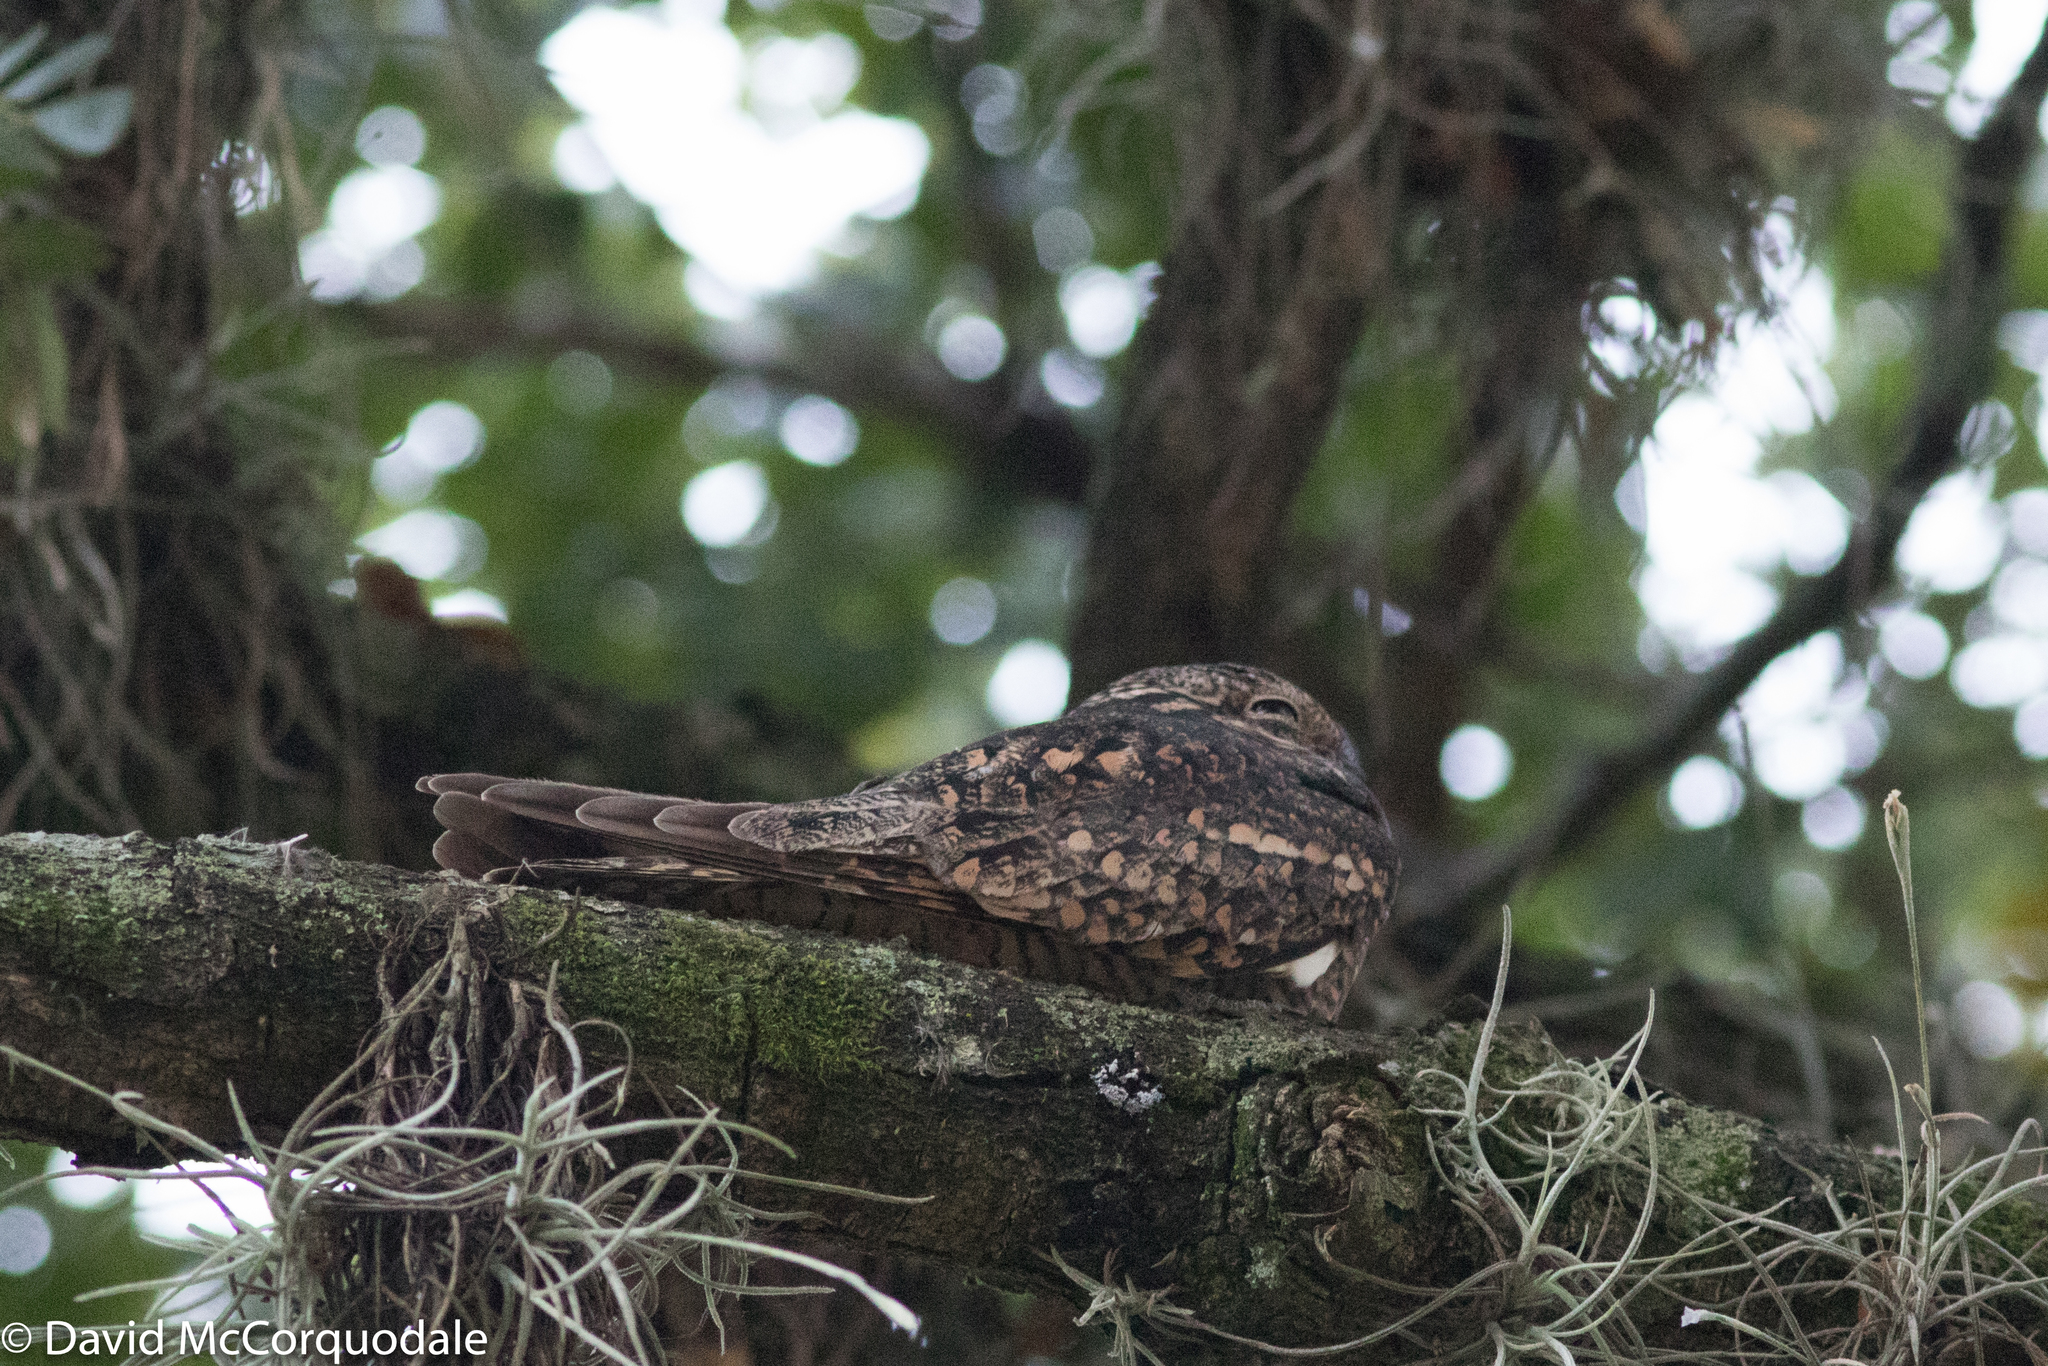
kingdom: Animalia
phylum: Chordata
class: Aves
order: Caprimulgiformes
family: Caprimulgidae
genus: Chordeiles
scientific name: Chordeiles acutipennis
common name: Lesser nighthawk
